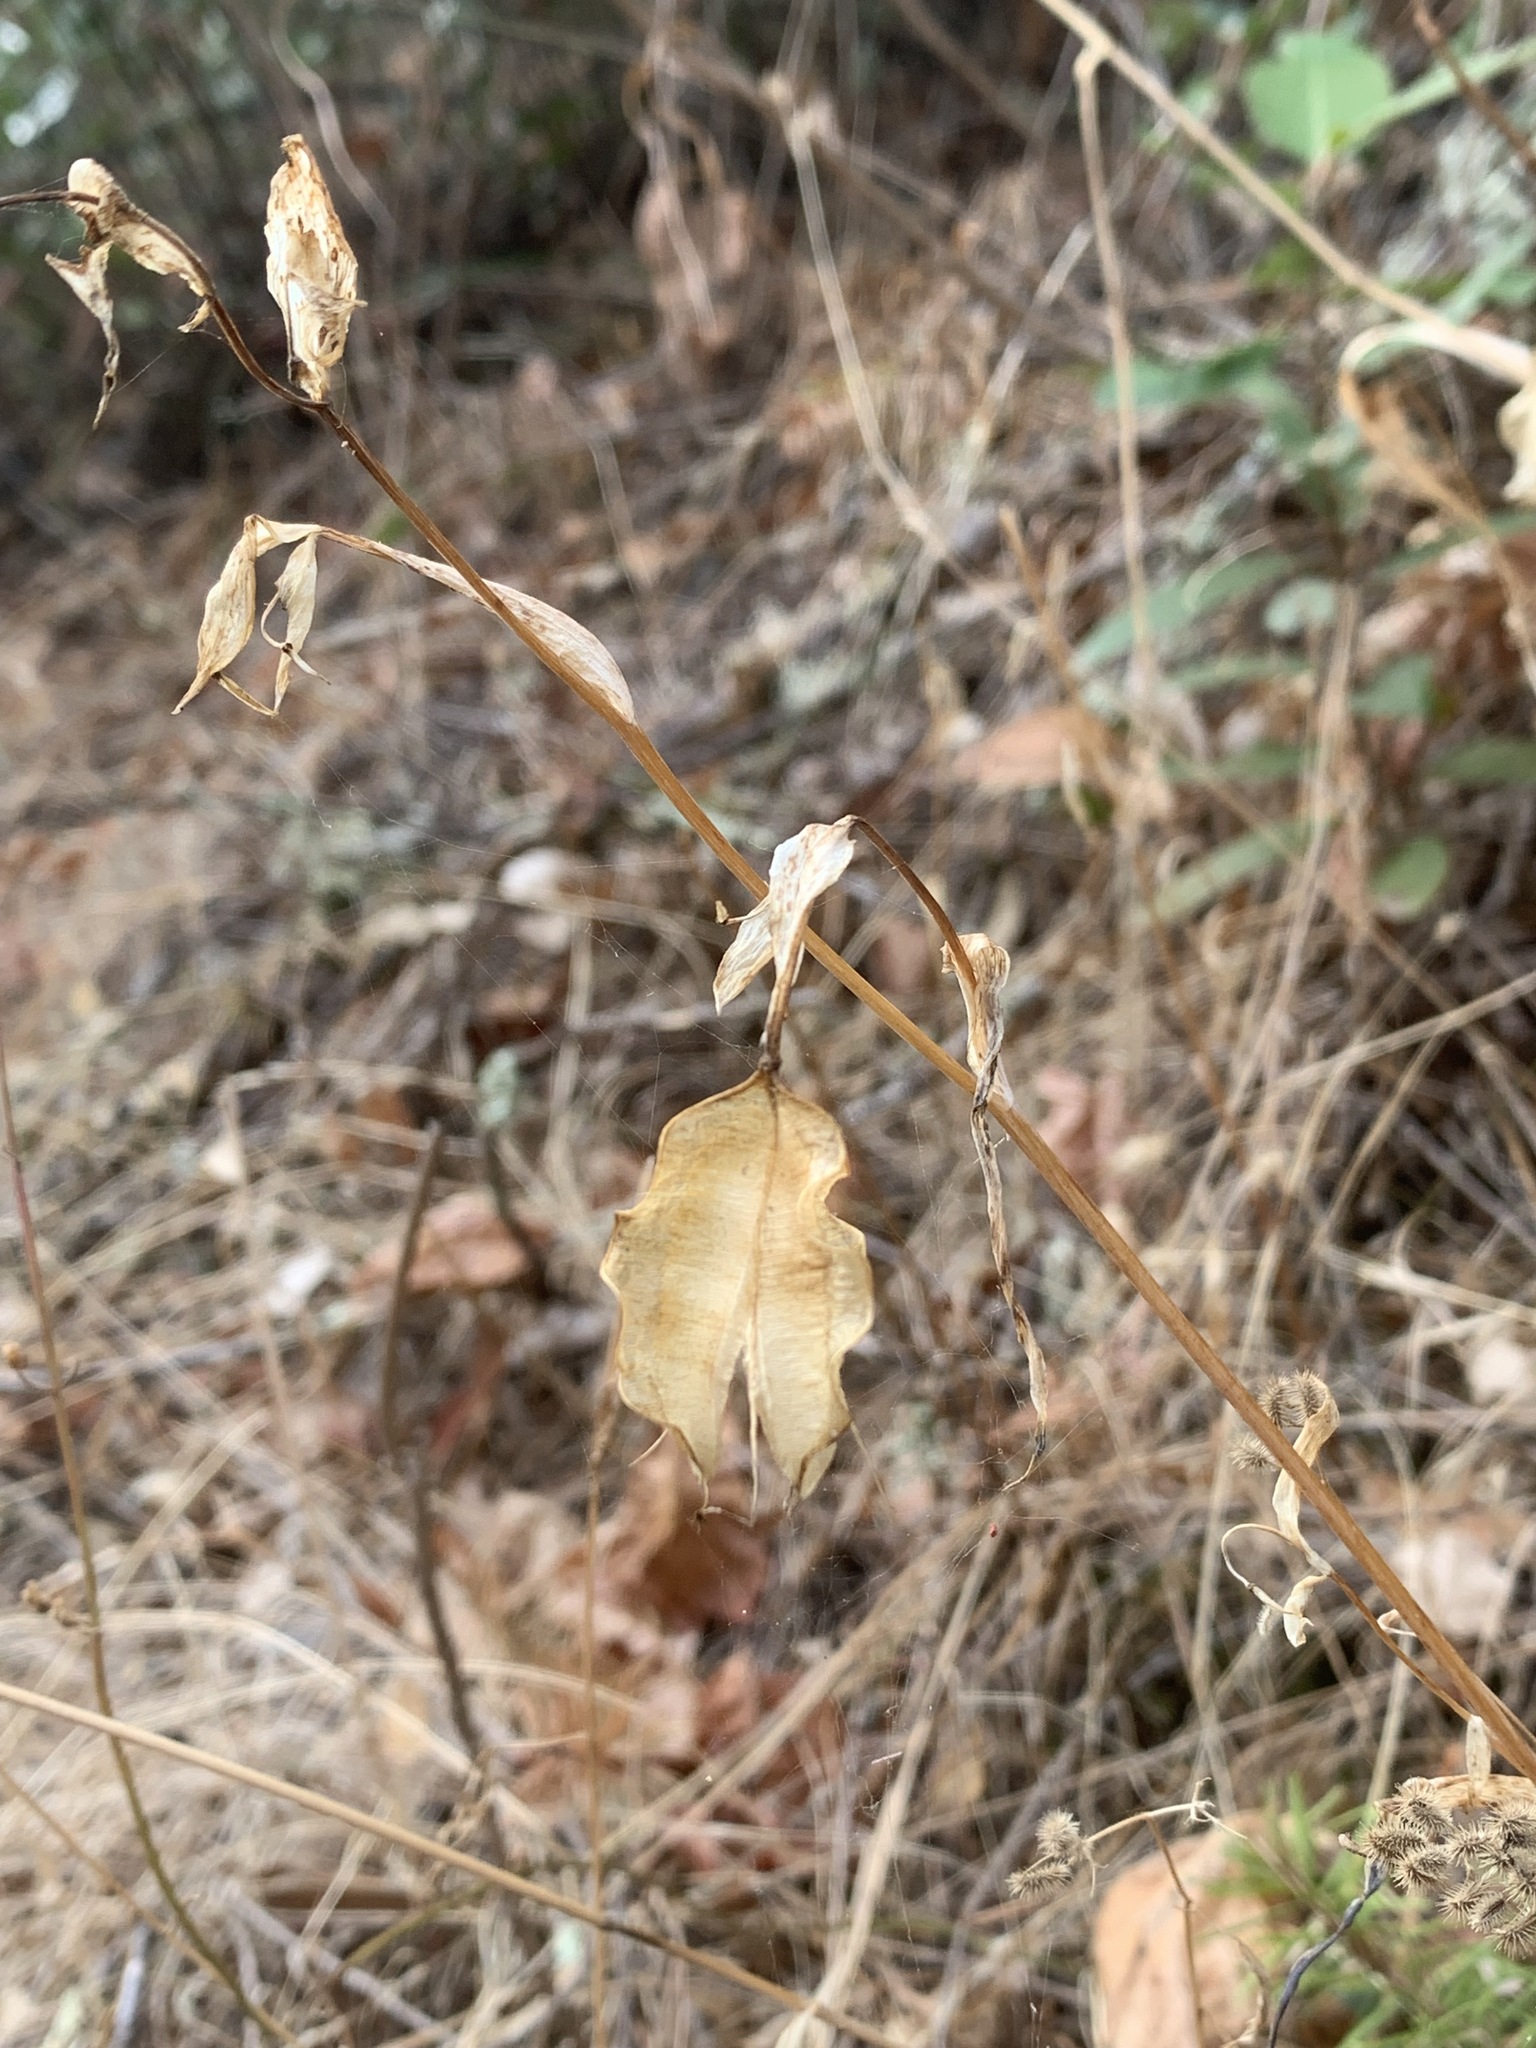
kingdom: Plantae
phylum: Tracheophyta
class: Liliopsida
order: Liliales
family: Liliaceae
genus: Calochortus
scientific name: Calochortus albus
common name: Fairy-lantern
